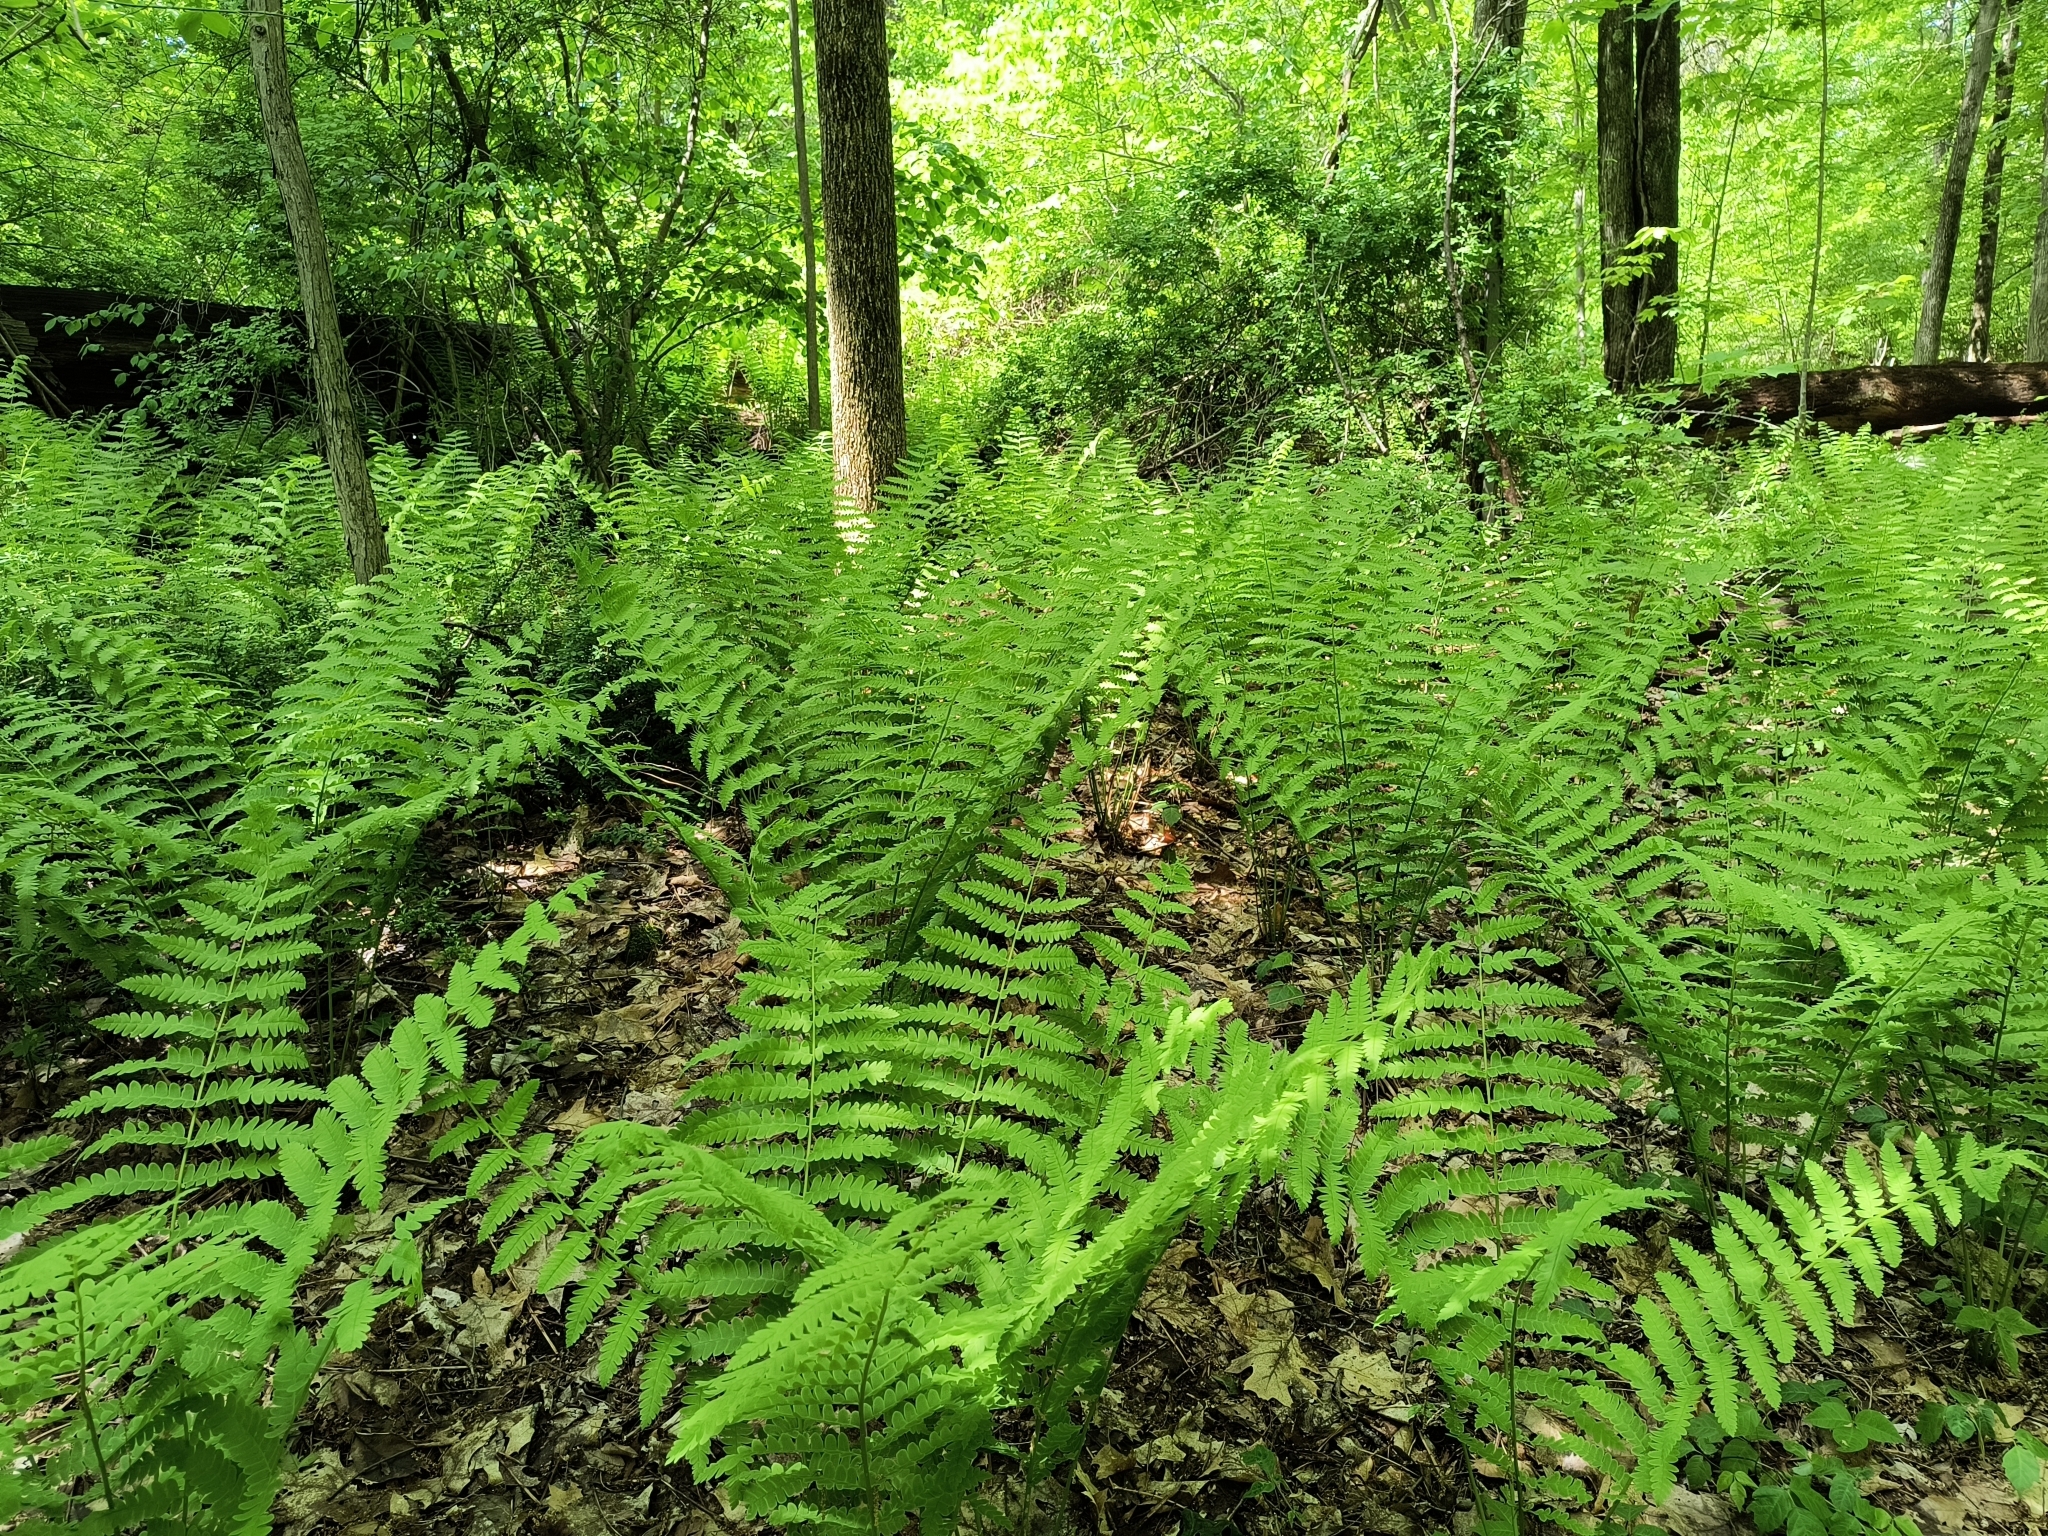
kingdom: Plantae
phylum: Tracheophyta
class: Polypodiopsida
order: Osmundales
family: Osmundaceae
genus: Claytosmunda
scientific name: Claytosmunda claytoniana
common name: Clayton's fern
